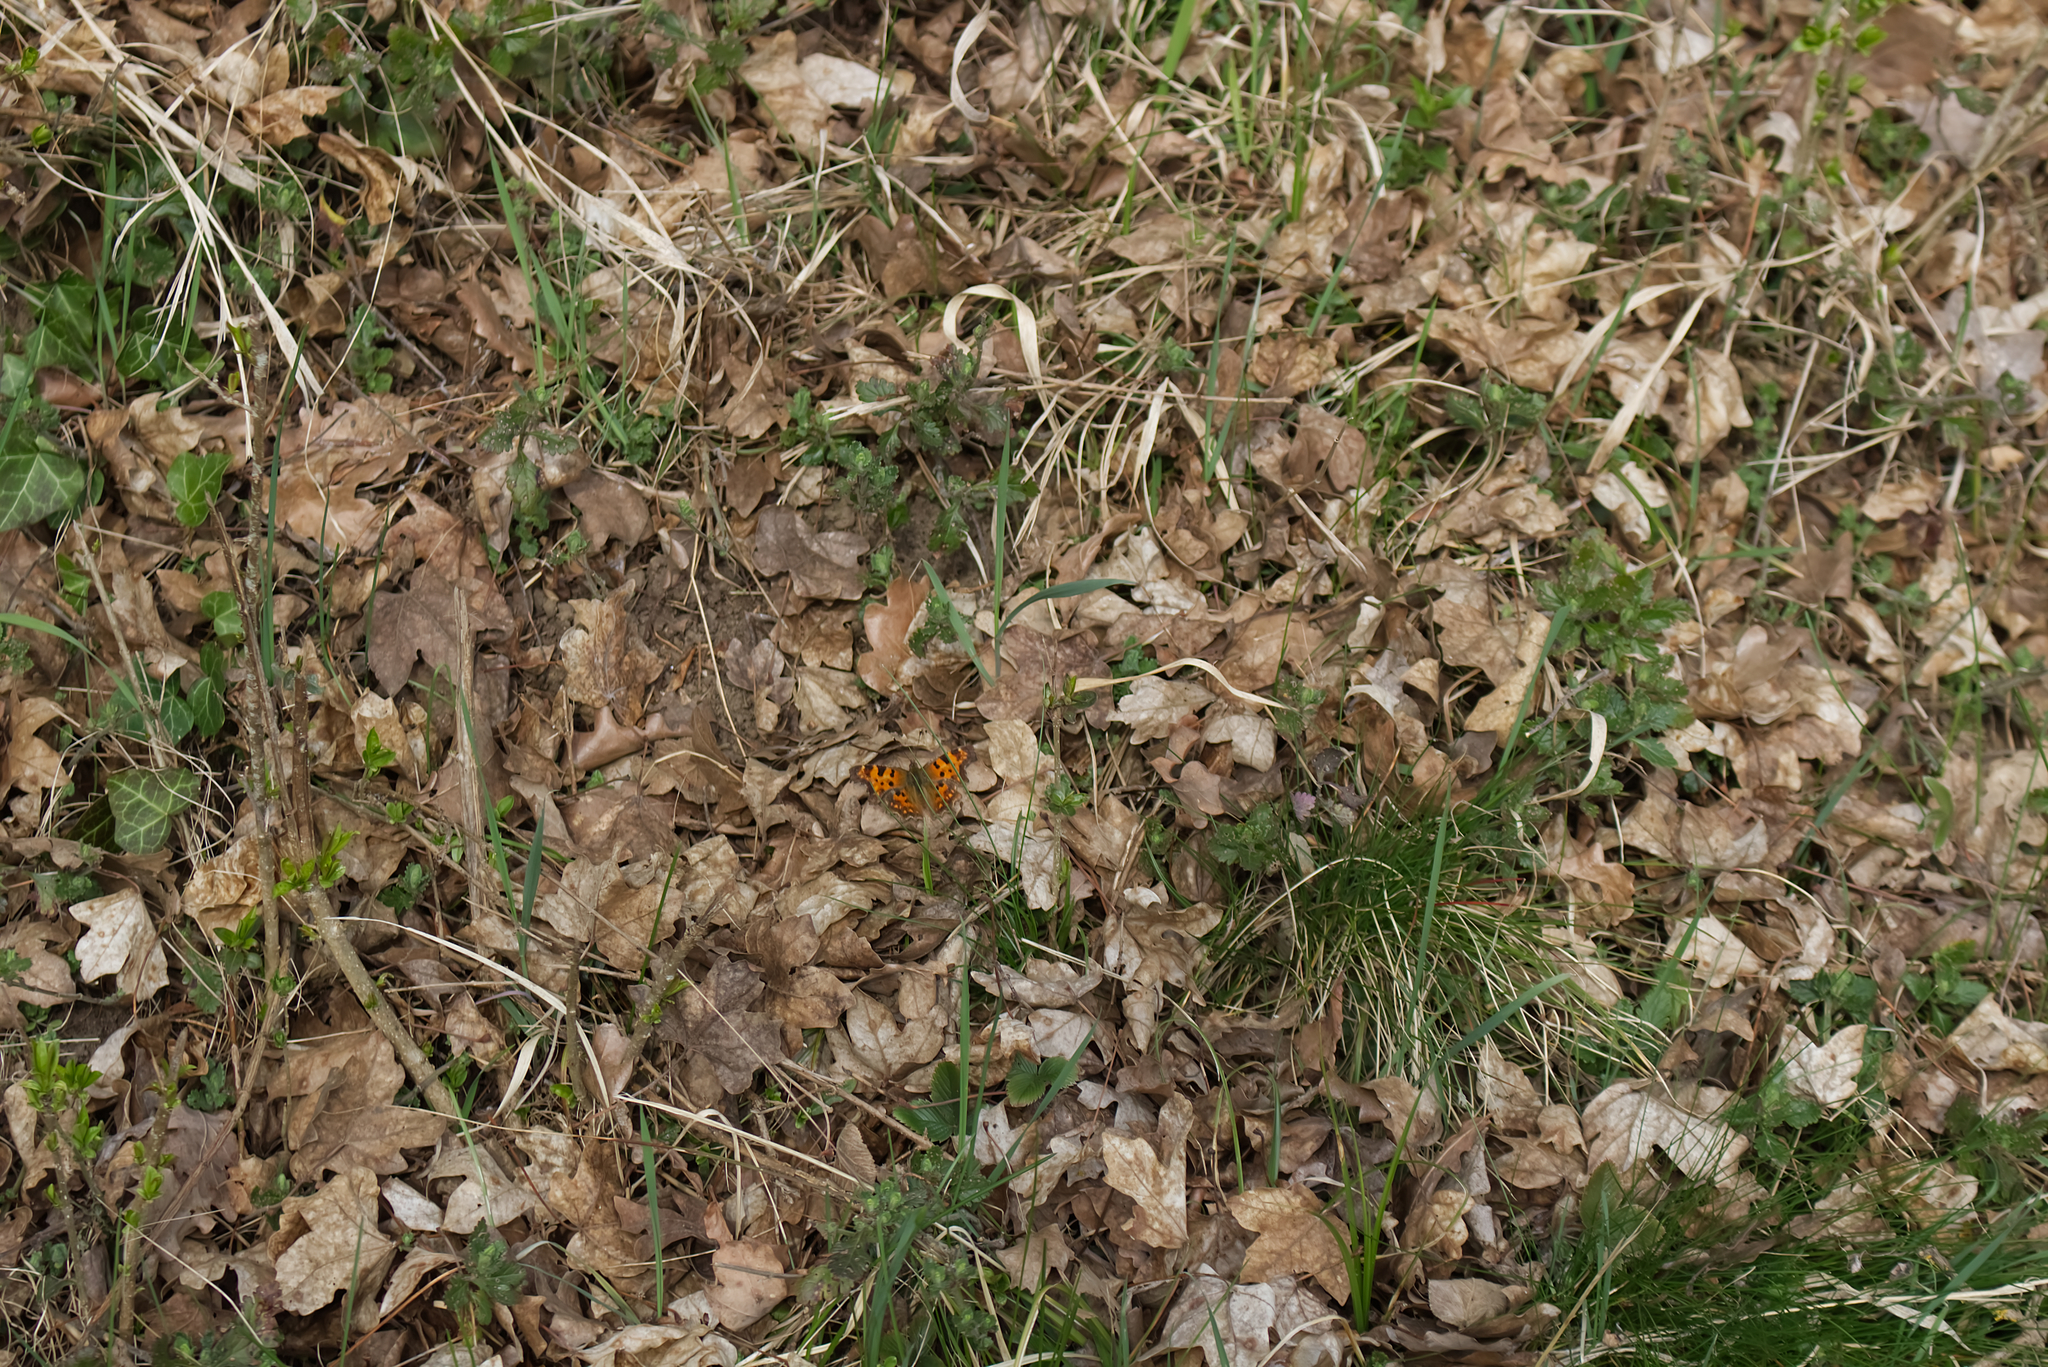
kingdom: Animalia
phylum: Arthropoda
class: Insecta
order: Lepidoptera
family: Nymphalidae
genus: Polygonia
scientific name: Polygonia c-album
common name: Comma
